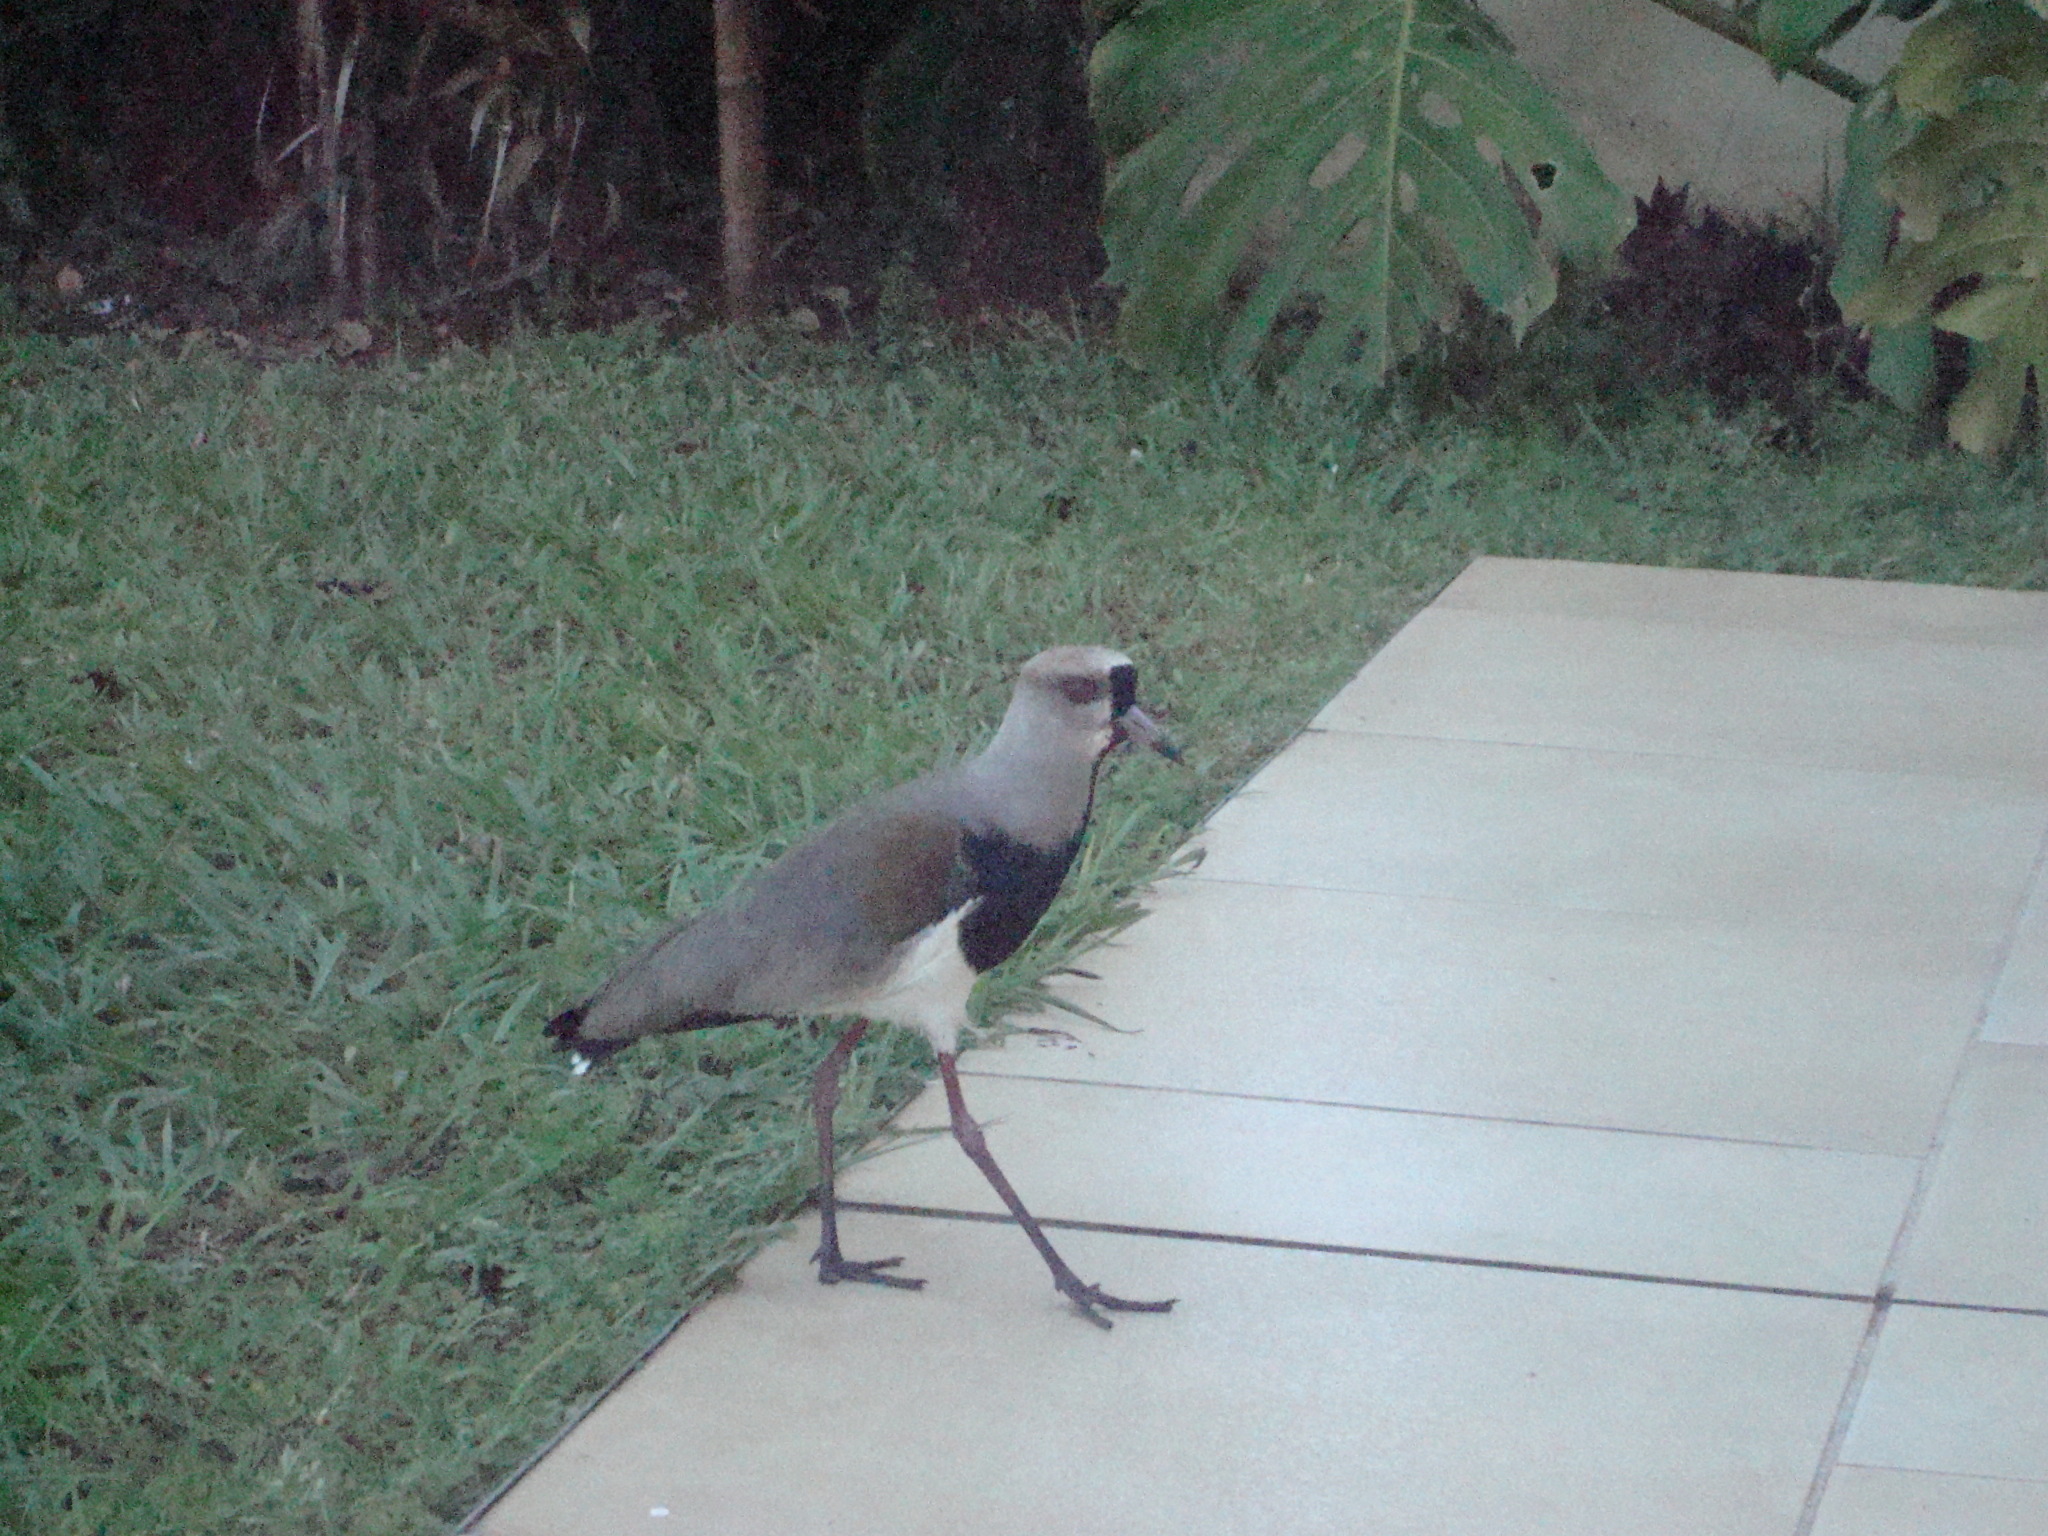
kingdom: Animalia
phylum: Chordata
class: Aves
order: Charadriiformes
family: Charadriidae
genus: Vanellus
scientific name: Vanellus chilensis
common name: Southern lapwing
